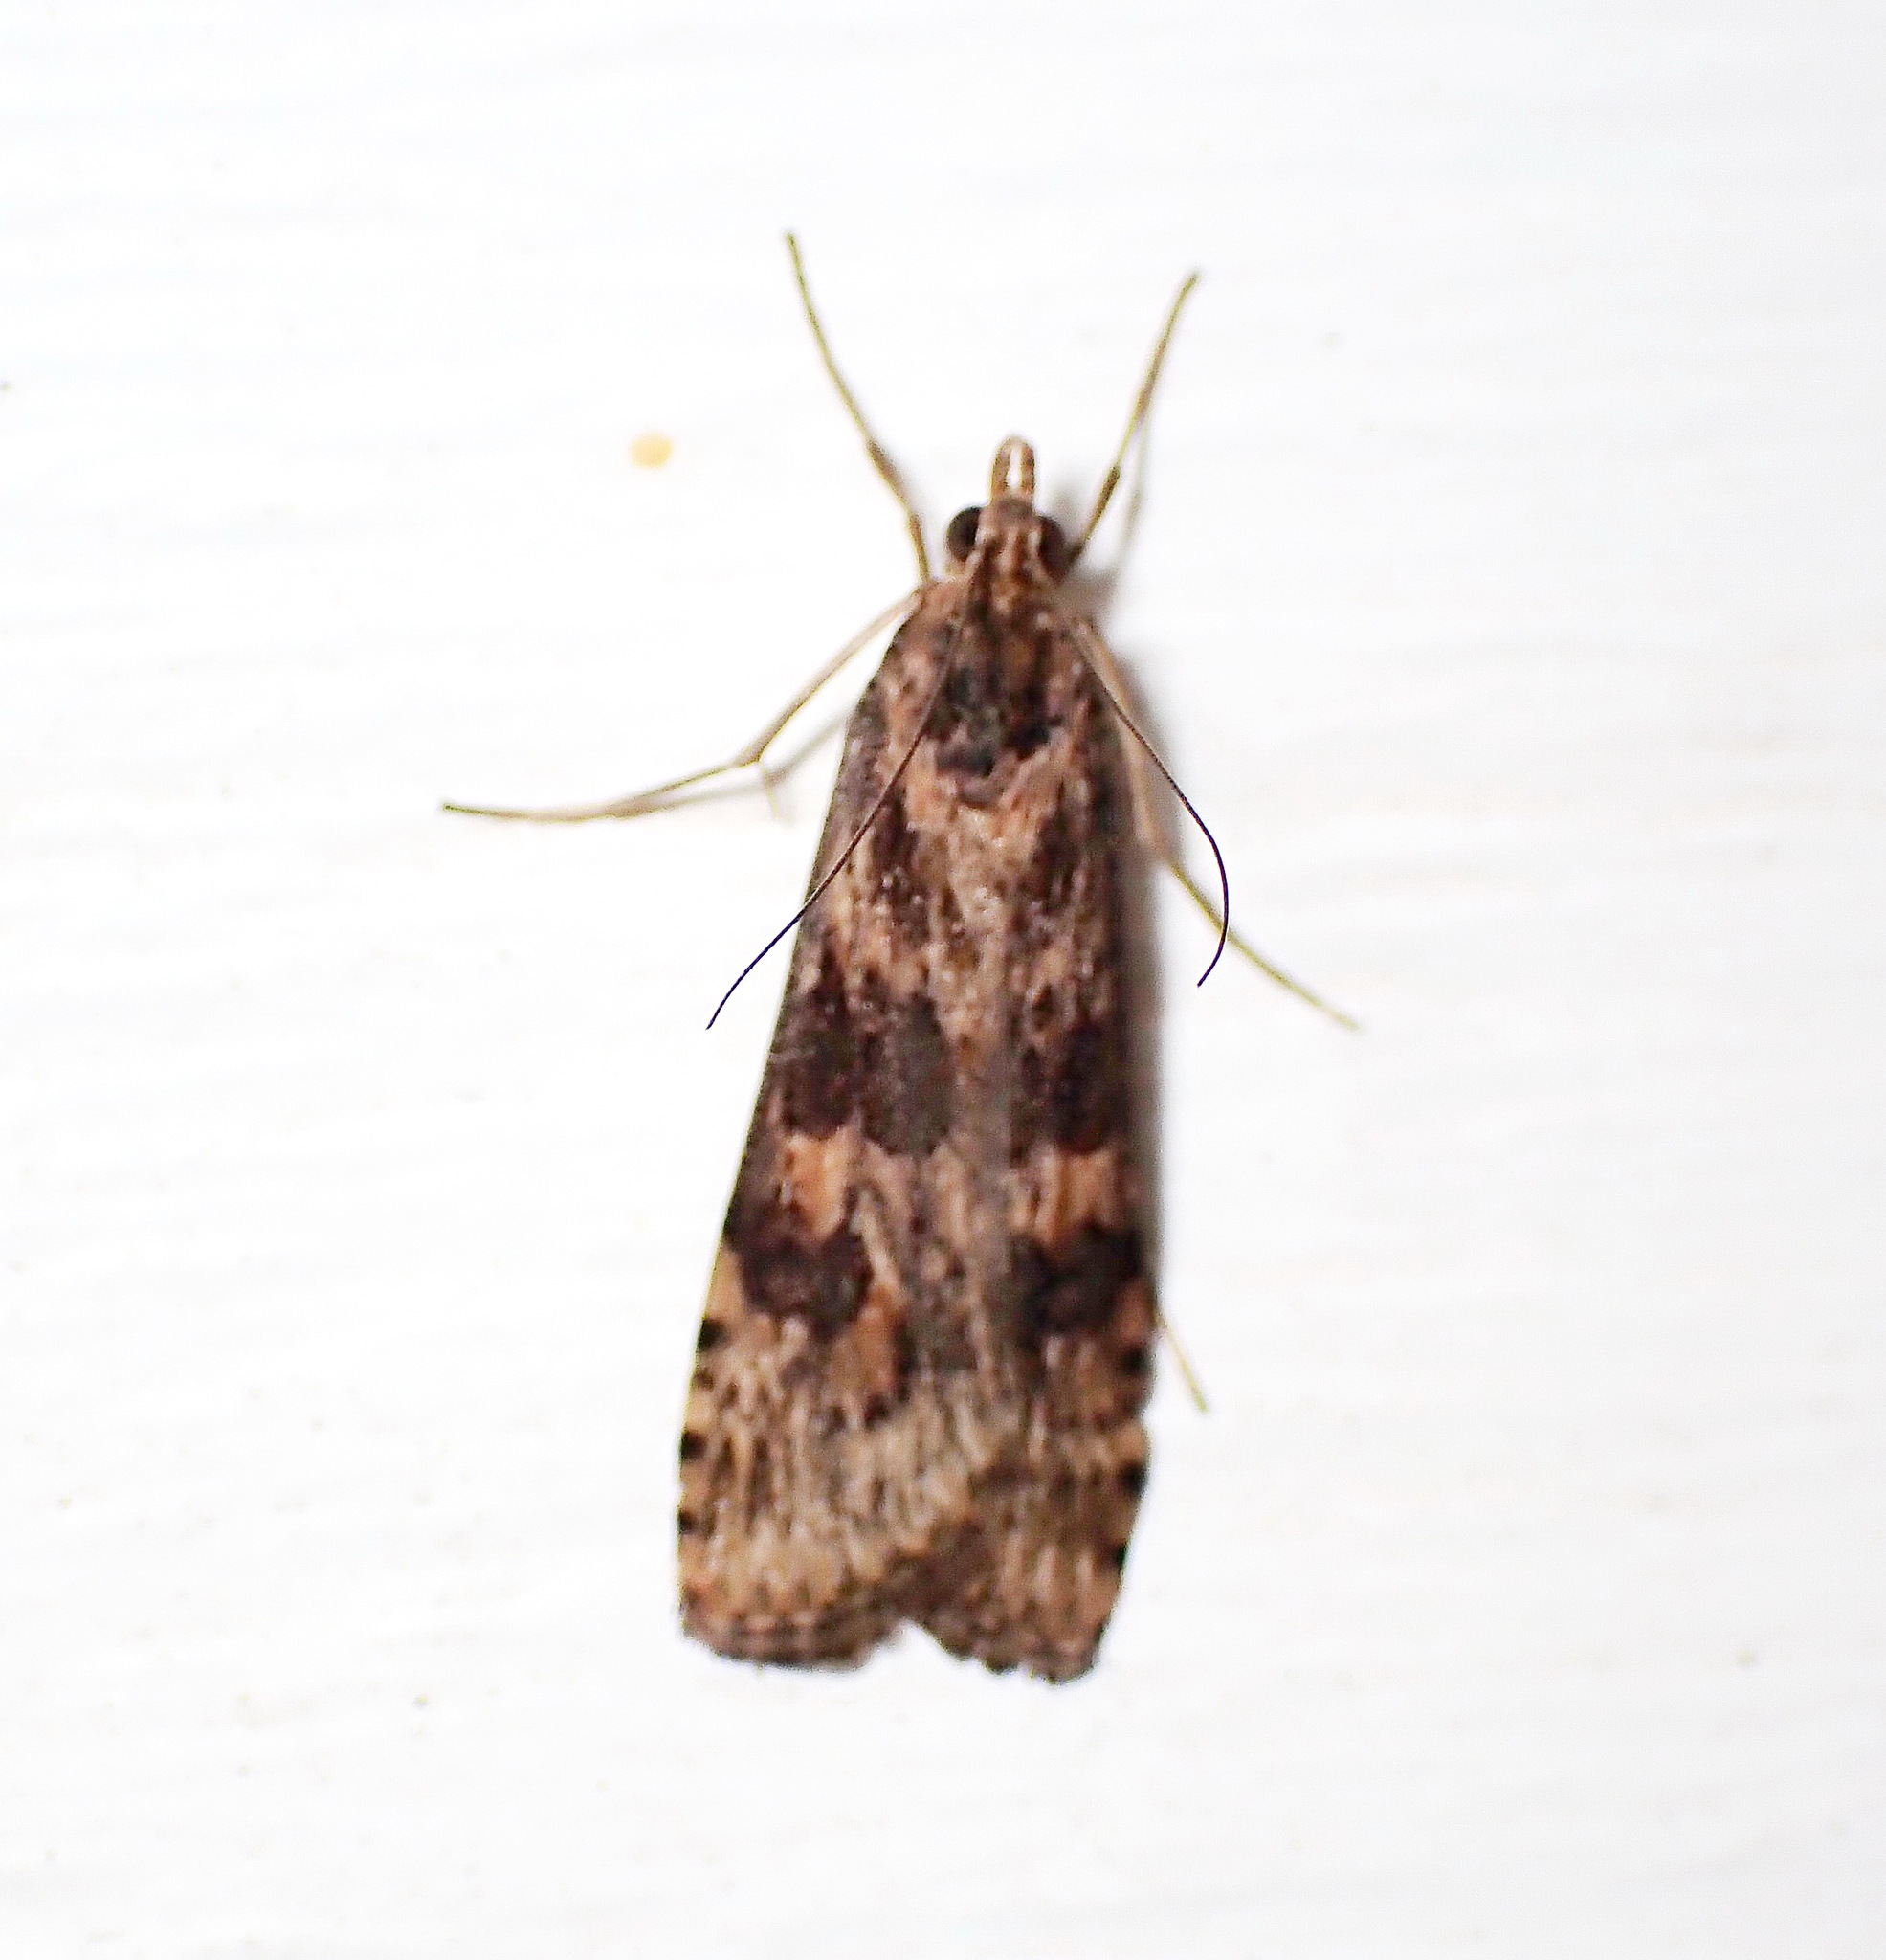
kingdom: Animalia
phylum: Arthropoda
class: Insecta
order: Lepidoptera
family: Crambidae
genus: Nomophila
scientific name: Nomophila nearctica
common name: American rush veneer
